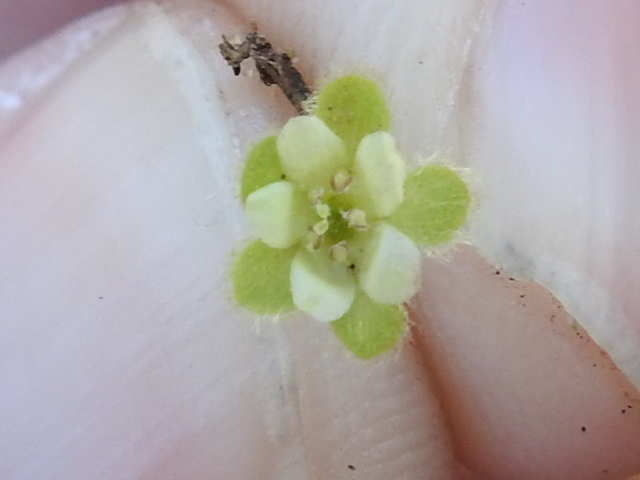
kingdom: Plantae
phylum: Tracheophyta
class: Magnoliopsida
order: Solanales
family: Convolvulaceae
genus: Dichondra
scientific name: Dichondra carolinensis
